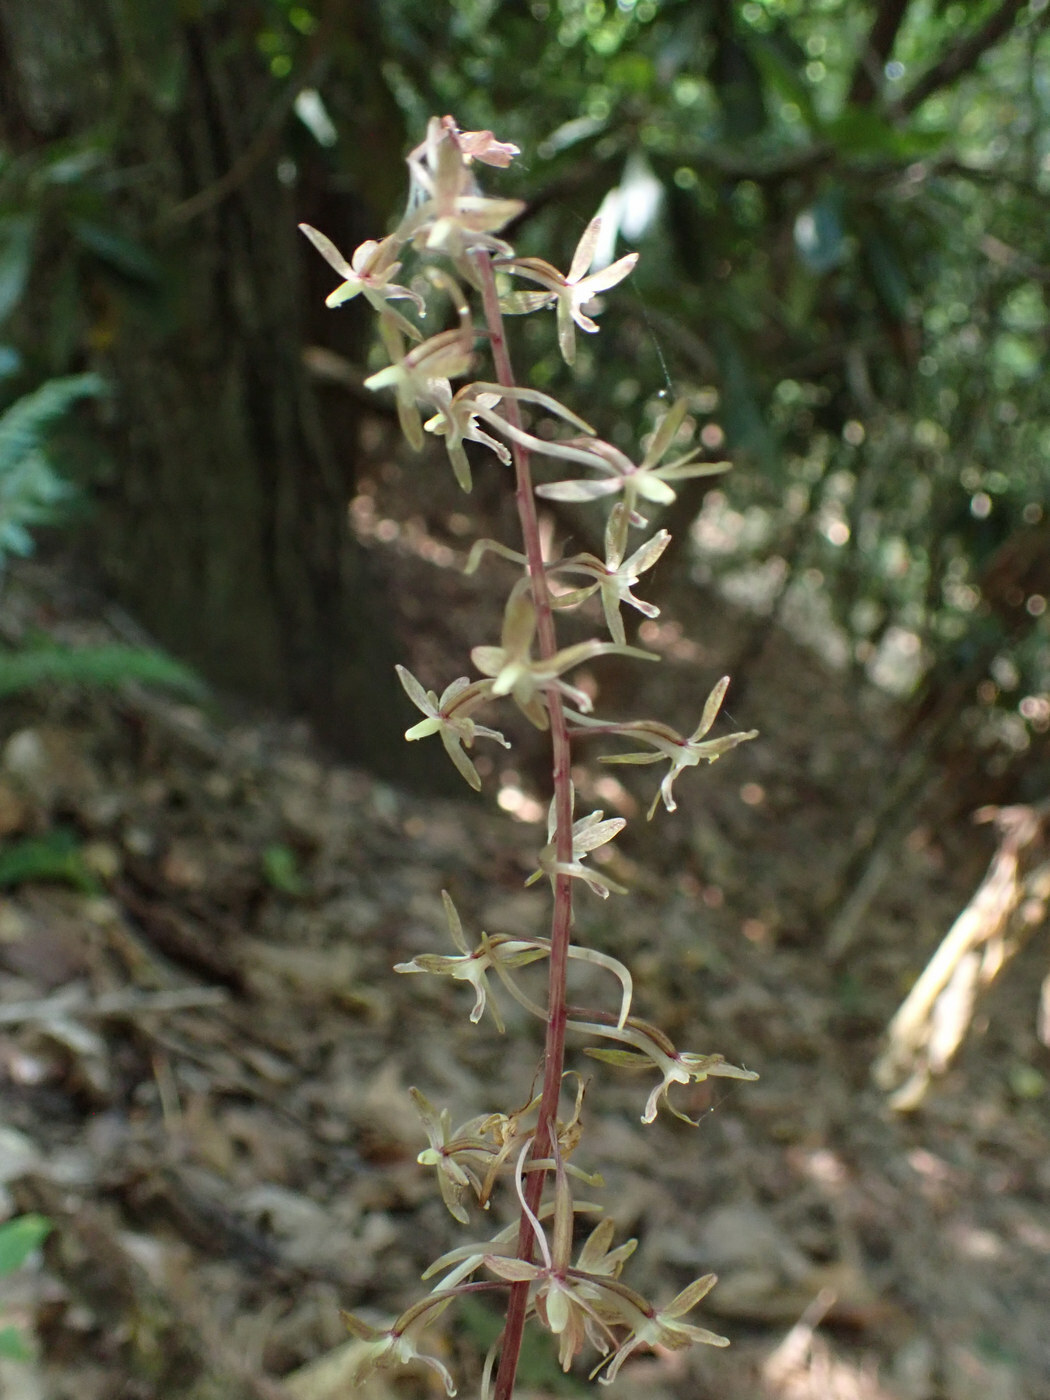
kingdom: Plantae
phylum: Tracheophyta
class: Liliopsida
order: Asparagales
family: Orchidaceae
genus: Tipularia
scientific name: Tipularia discolor
